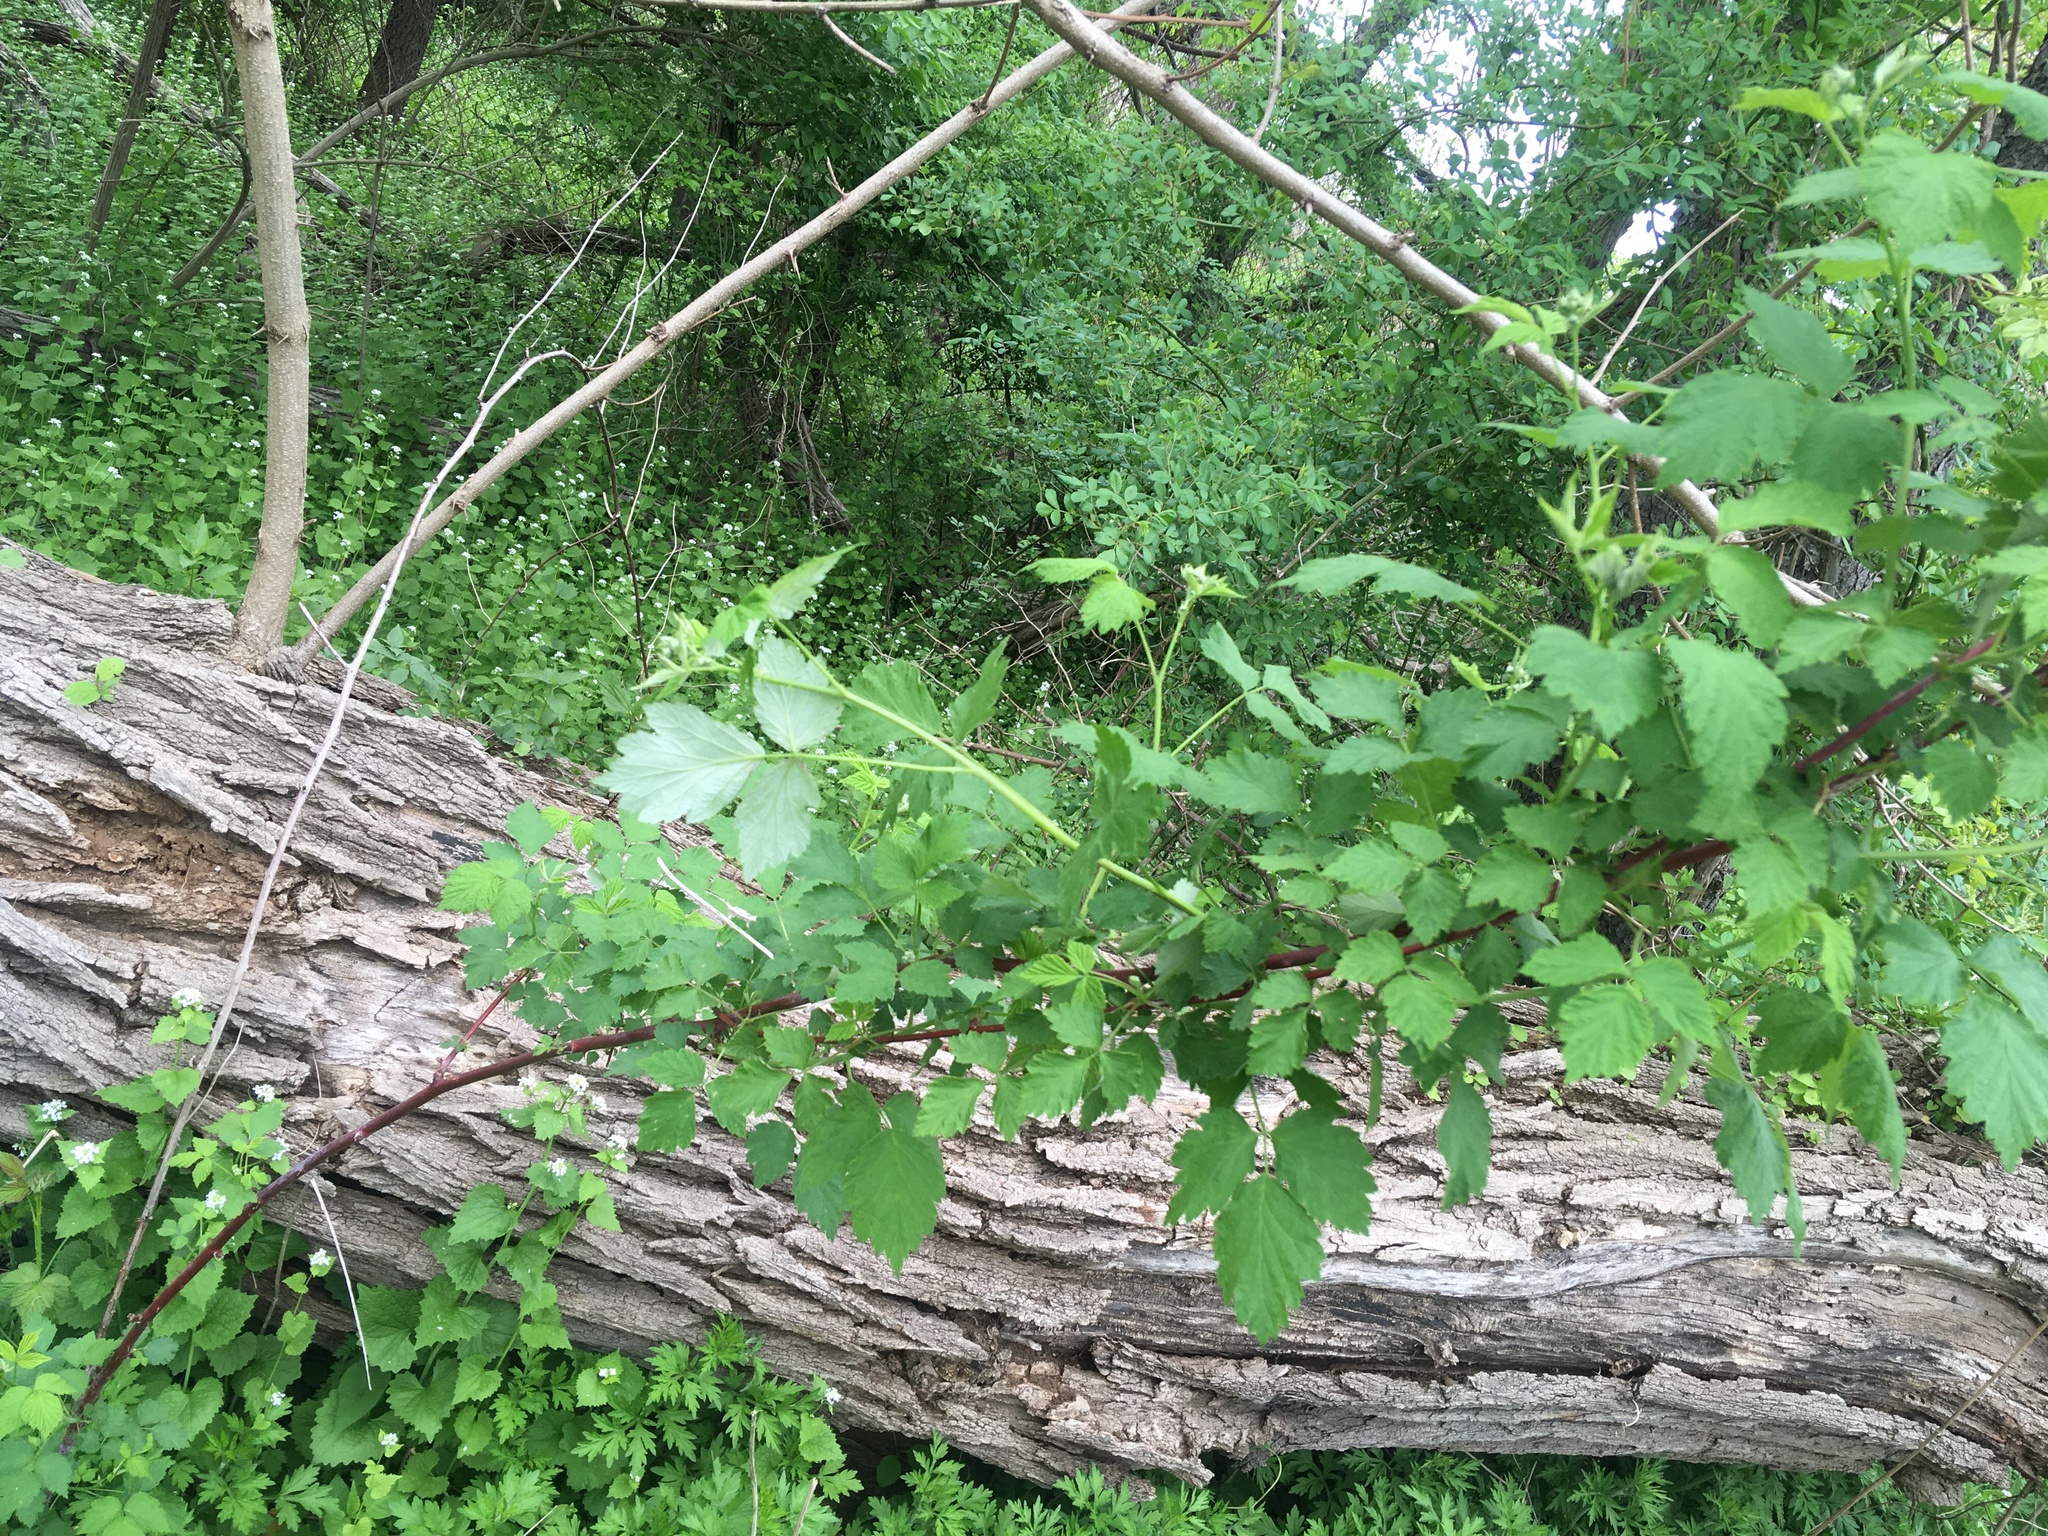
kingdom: Plantae
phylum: Tracheophyta
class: Magnoliopsida
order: Rosales
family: Rosaceae
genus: Rubus
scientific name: Rubus idaeus
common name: Raspberry
